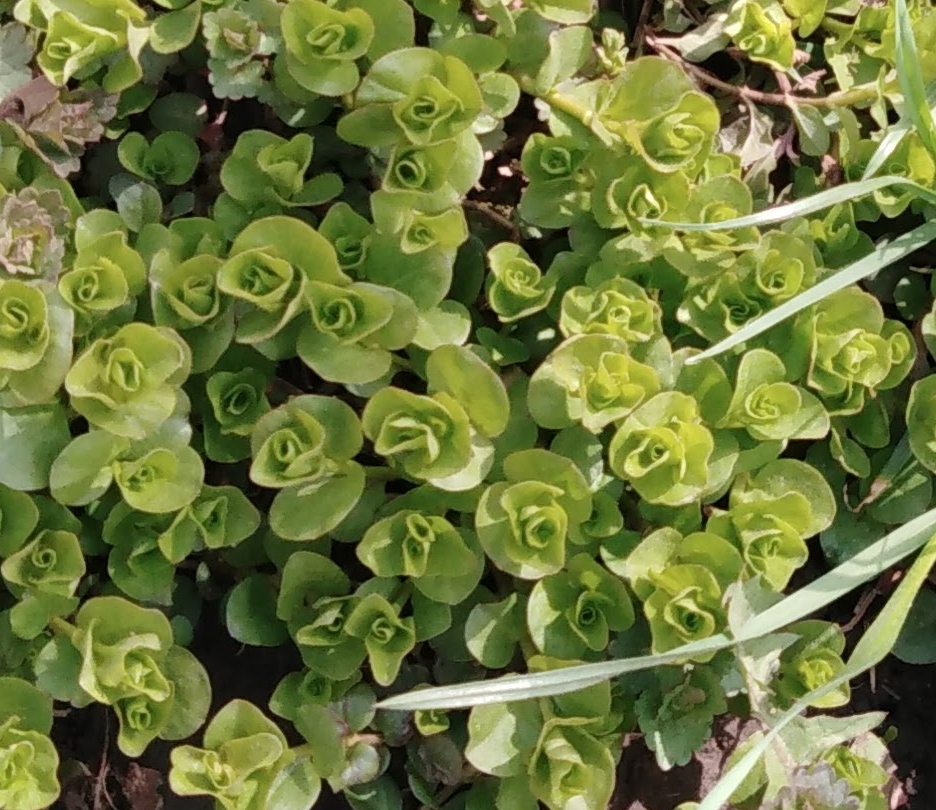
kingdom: Plantae
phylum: Tracheophyta
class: Magnoliopsida
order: Ericales
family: Primulaceae
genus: Lysimachia
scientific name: Lysimachia nummularia
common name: Moneywort
